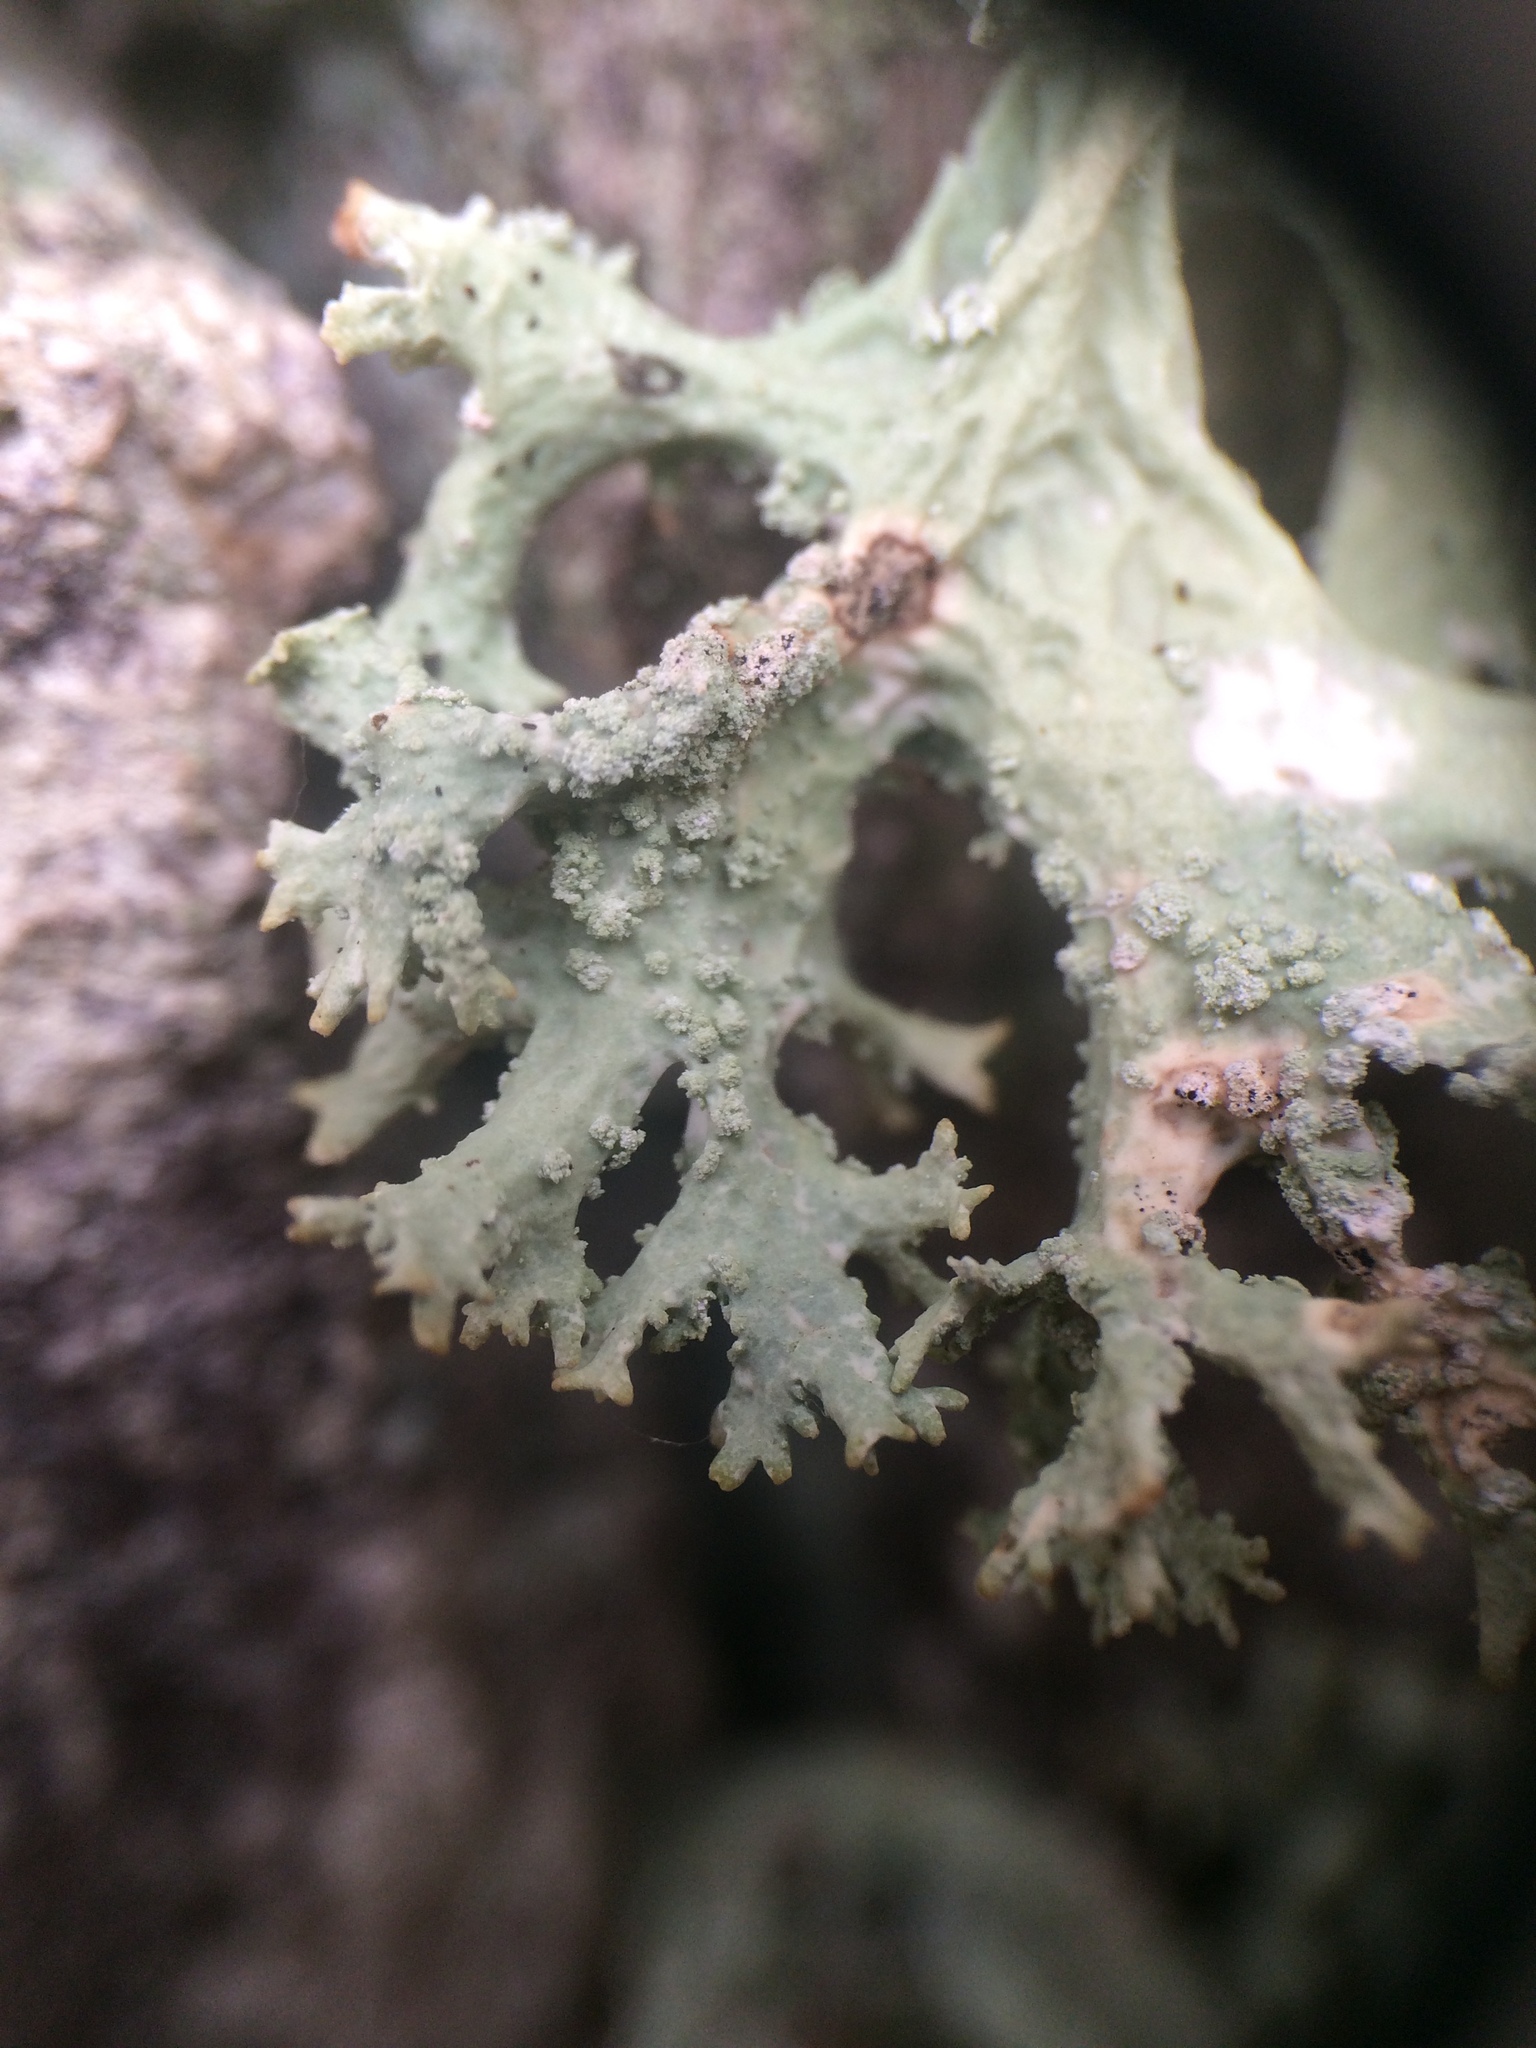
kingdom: Fungi
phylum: Ascomycota
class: Lecanoromycetes
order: Lecanorales
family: Parmeliaceae
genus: Evernia
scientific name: Evernia prunastri
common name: Oak moss
